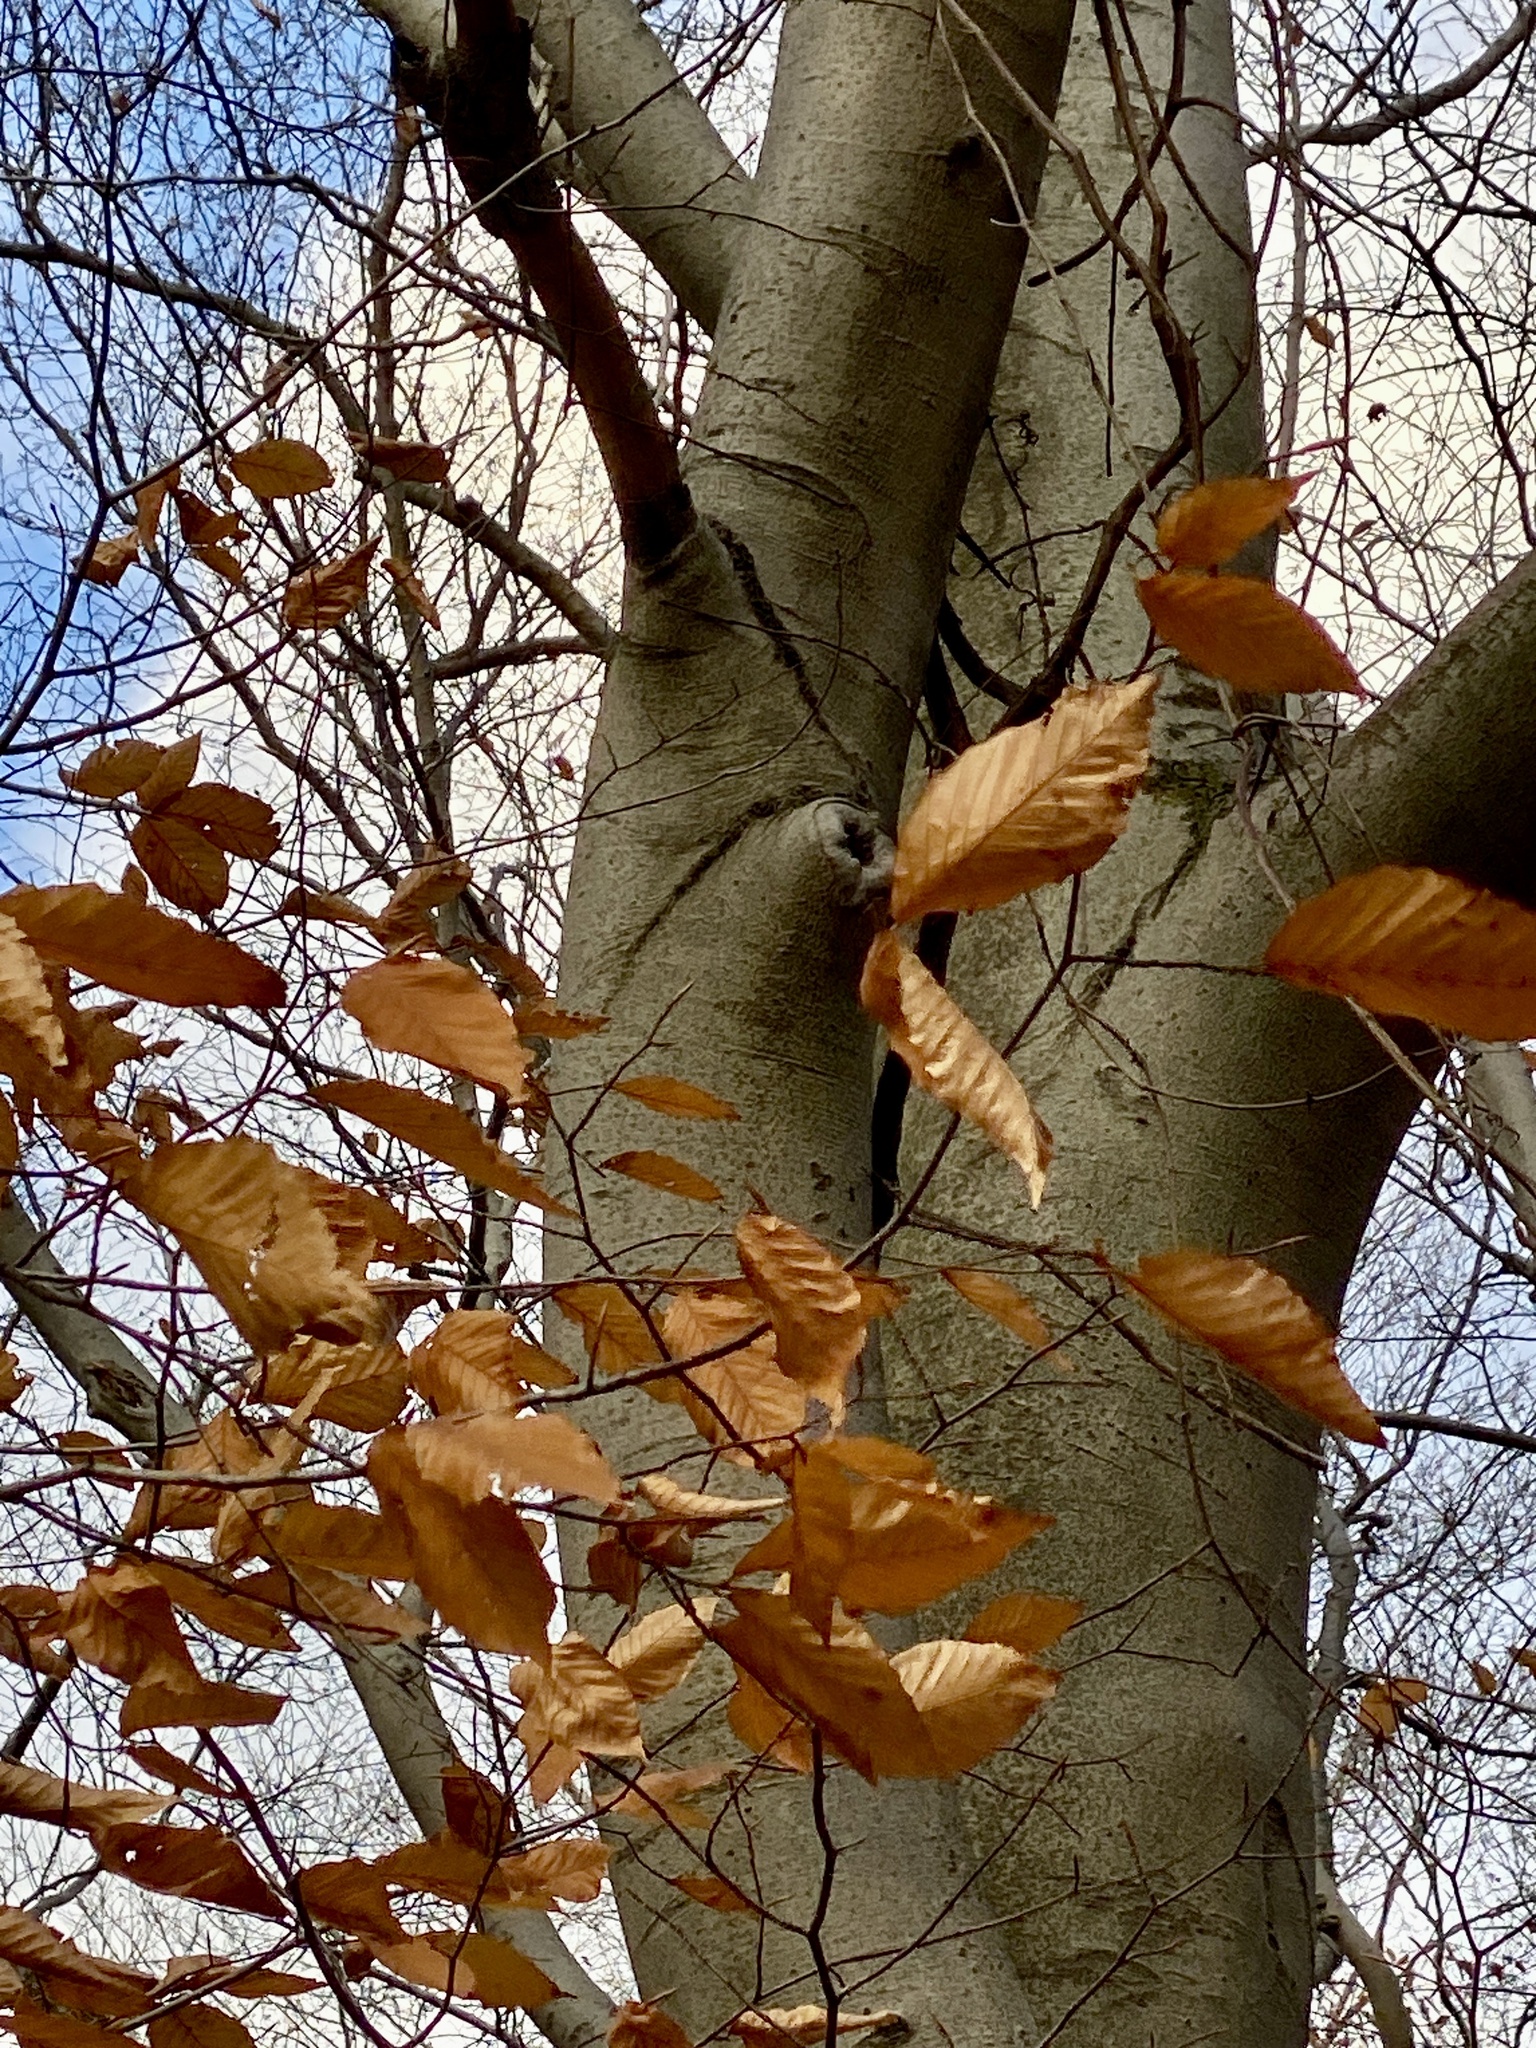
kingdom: Plantae
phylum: Tracheophyta
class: Magnoliopsida
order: Fagales
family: Fagaceae
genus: Fagus
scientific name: Fagus grandifolia
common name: American beech
